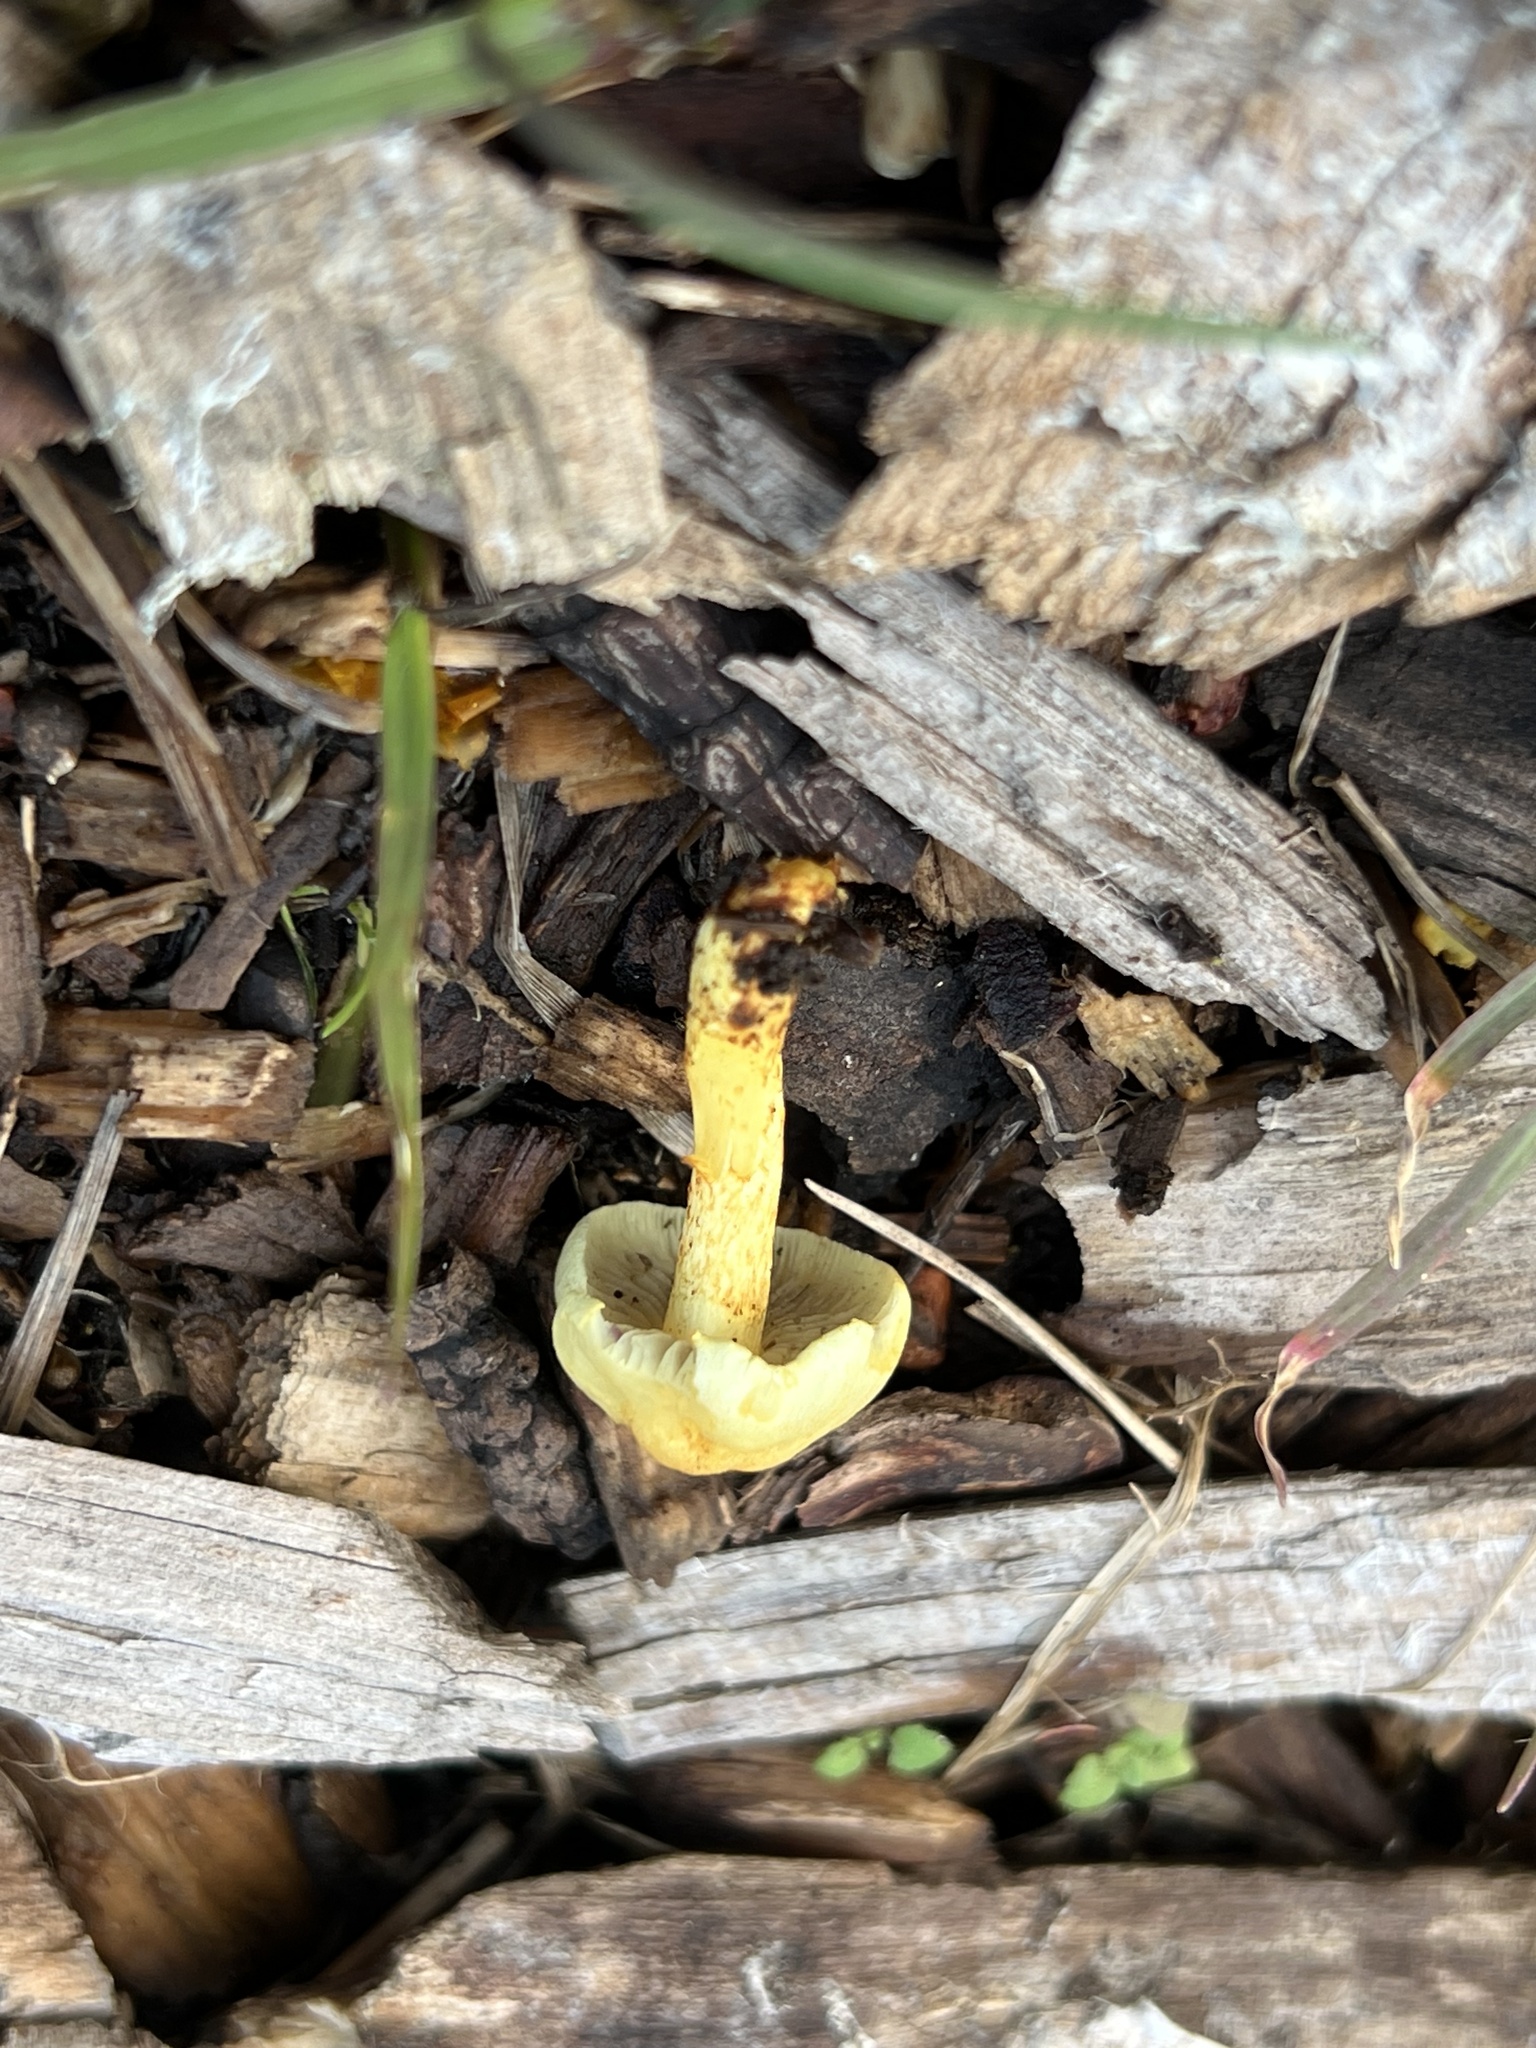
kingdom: Fungi
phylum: Basidiomycota
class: Agaricomycetes
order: Agaricales
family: Strophariaceae
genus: Hypholoma
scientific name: Hypholoma fasciculare
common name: Sulphur tuft
